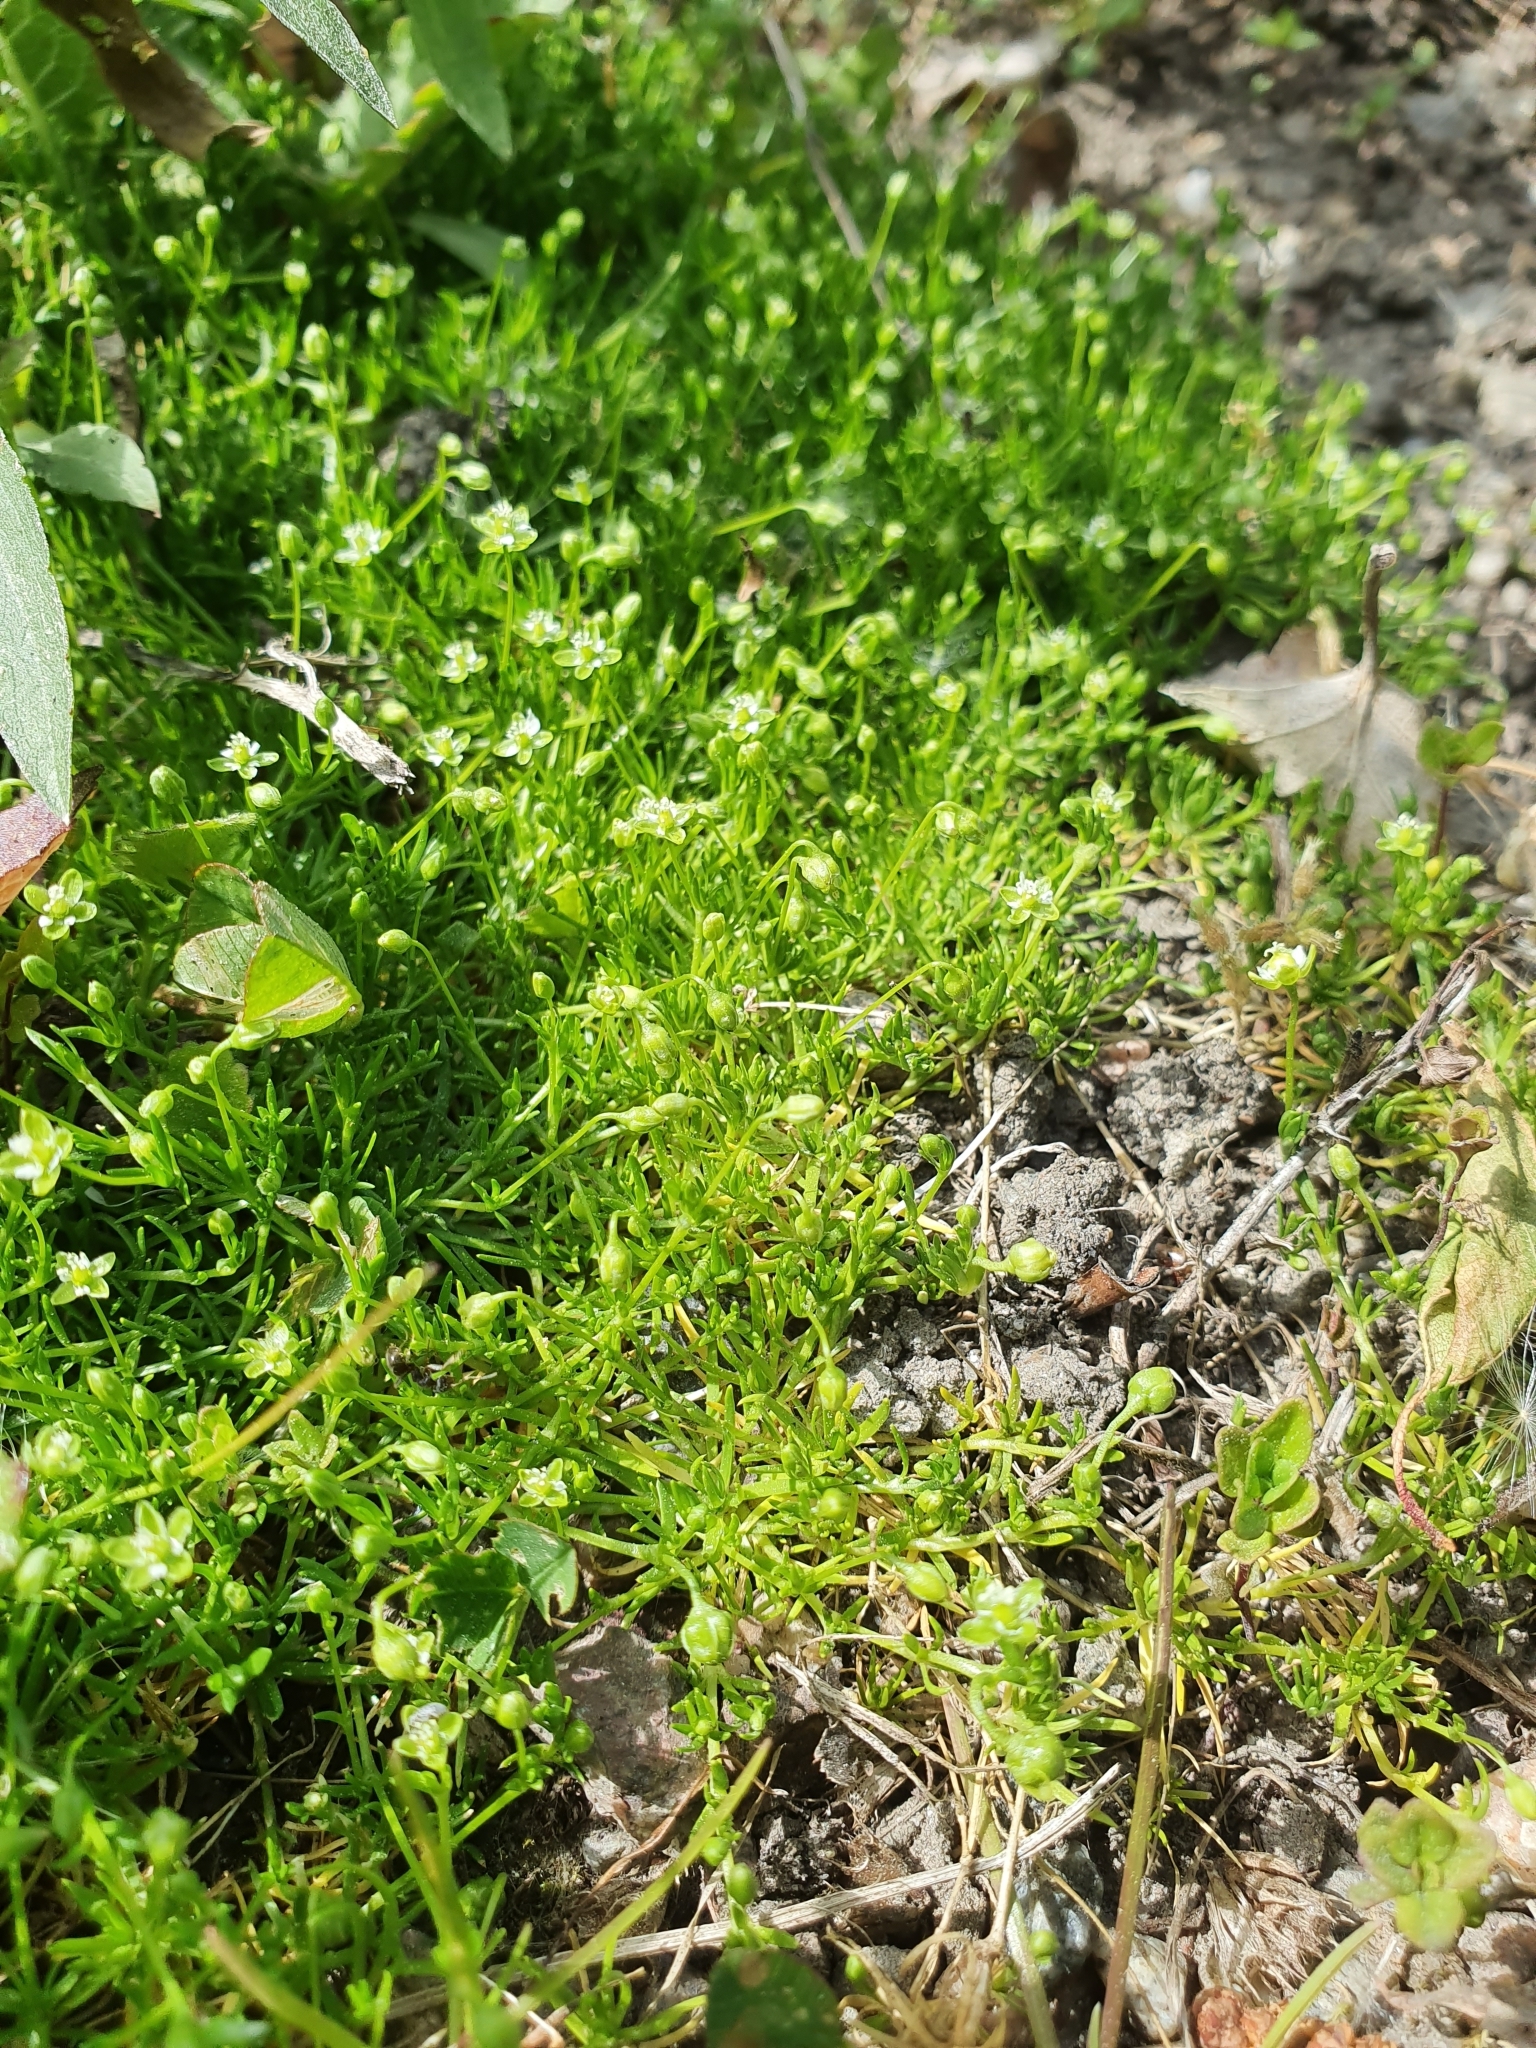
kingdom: Plantae
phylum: Tracheophyta
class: Magnoliopsida
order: Caryophyllales
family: Caryophyllaceae
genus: Sagina
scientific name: Sagina procumbens
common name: Procumbent pearlwort
